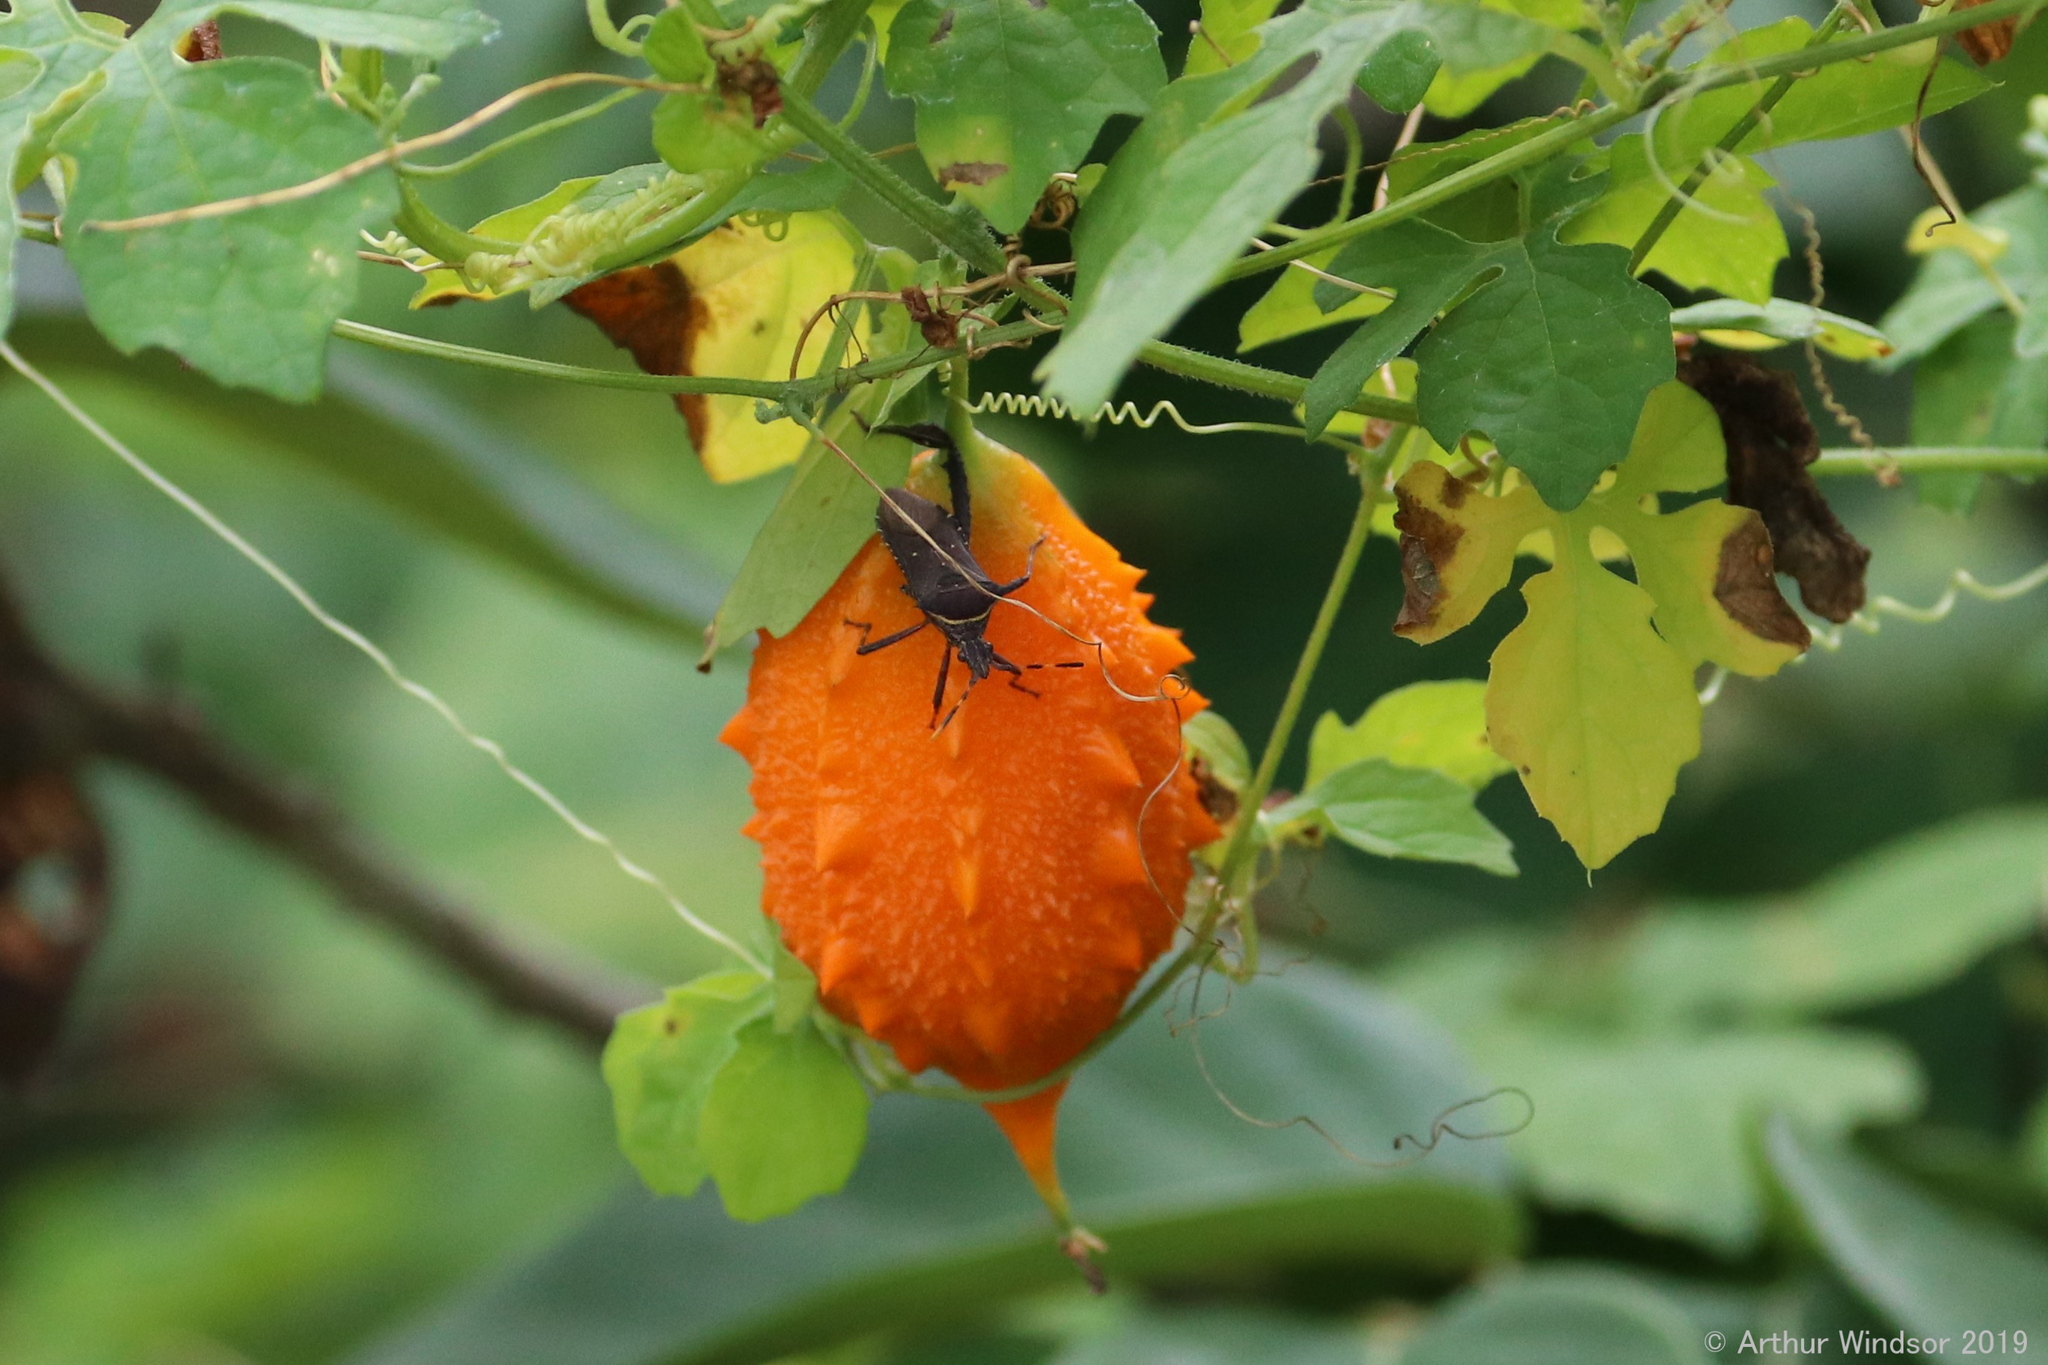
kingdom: Animalia
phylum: Arthropoda
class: Insecta
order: Hemiptera
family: Coreidae
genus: Leptoglossus
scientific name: Leptoglossus gonagra
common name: Citron bug
